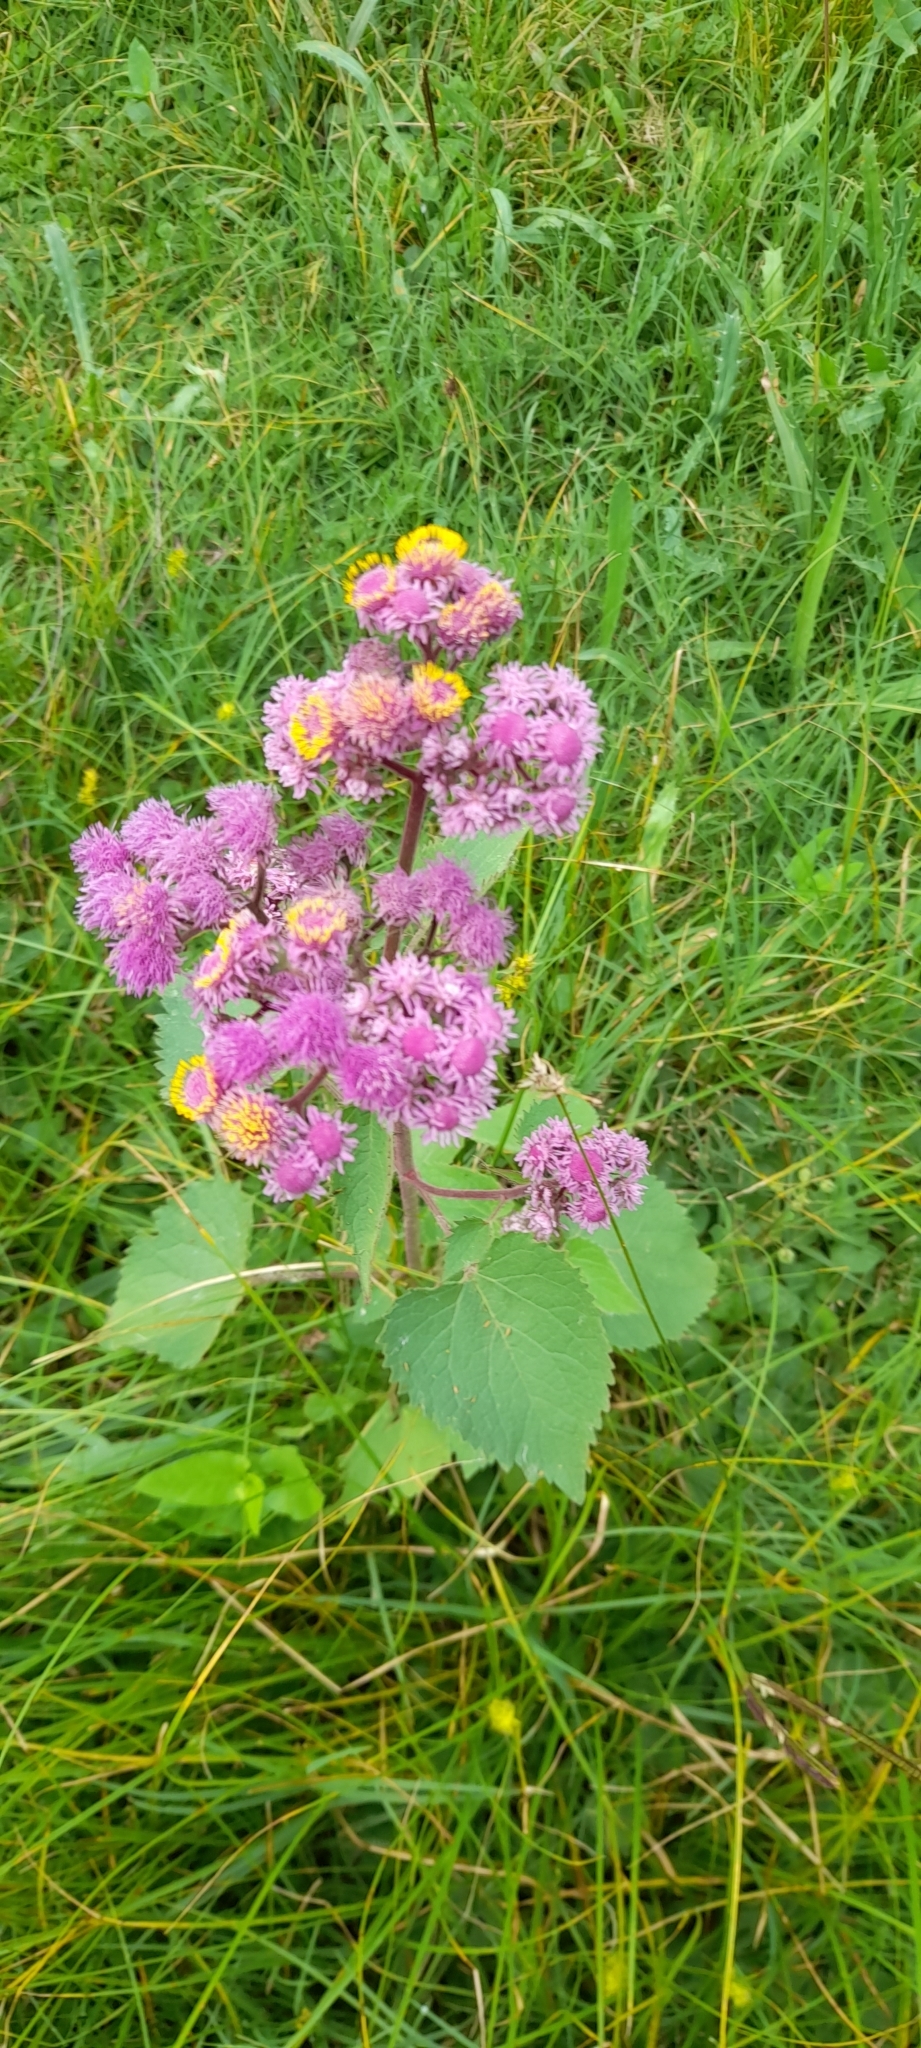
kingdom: Plantae
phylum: Tracheophyta
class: Magnoliopsida
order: Asterales
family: Asteraceae
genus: Urolepis
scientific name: Urolepis hecatantha
